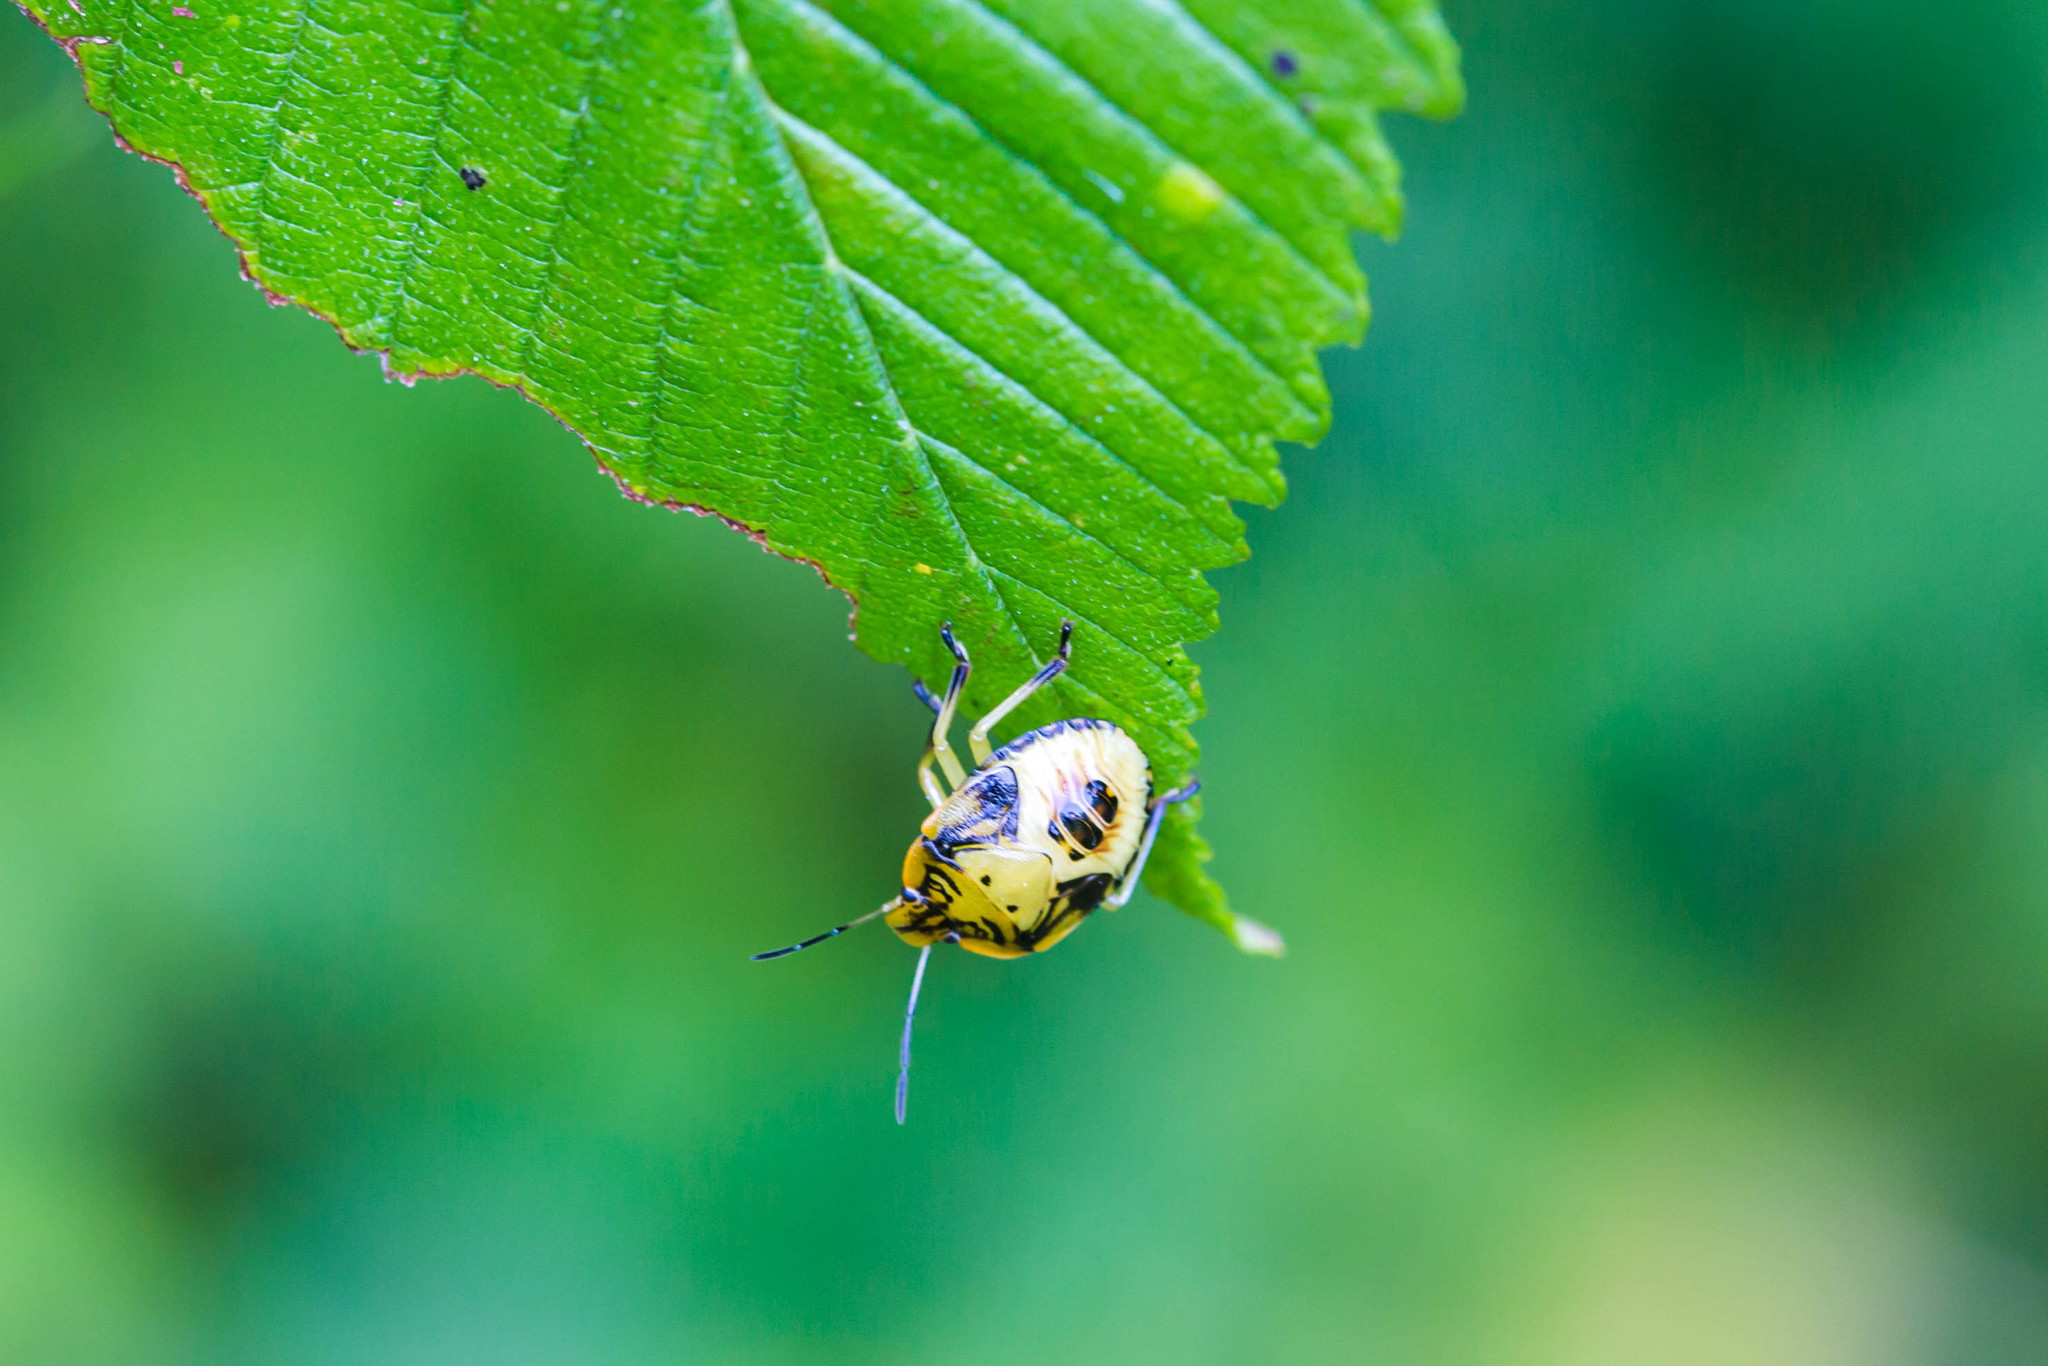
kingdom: Animalia
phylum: Arthropoda
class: Insecta
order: Hemiptera
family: Pentatomidae
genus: Chinavia
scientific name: Chinavia hilaris
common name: Green stink bug
